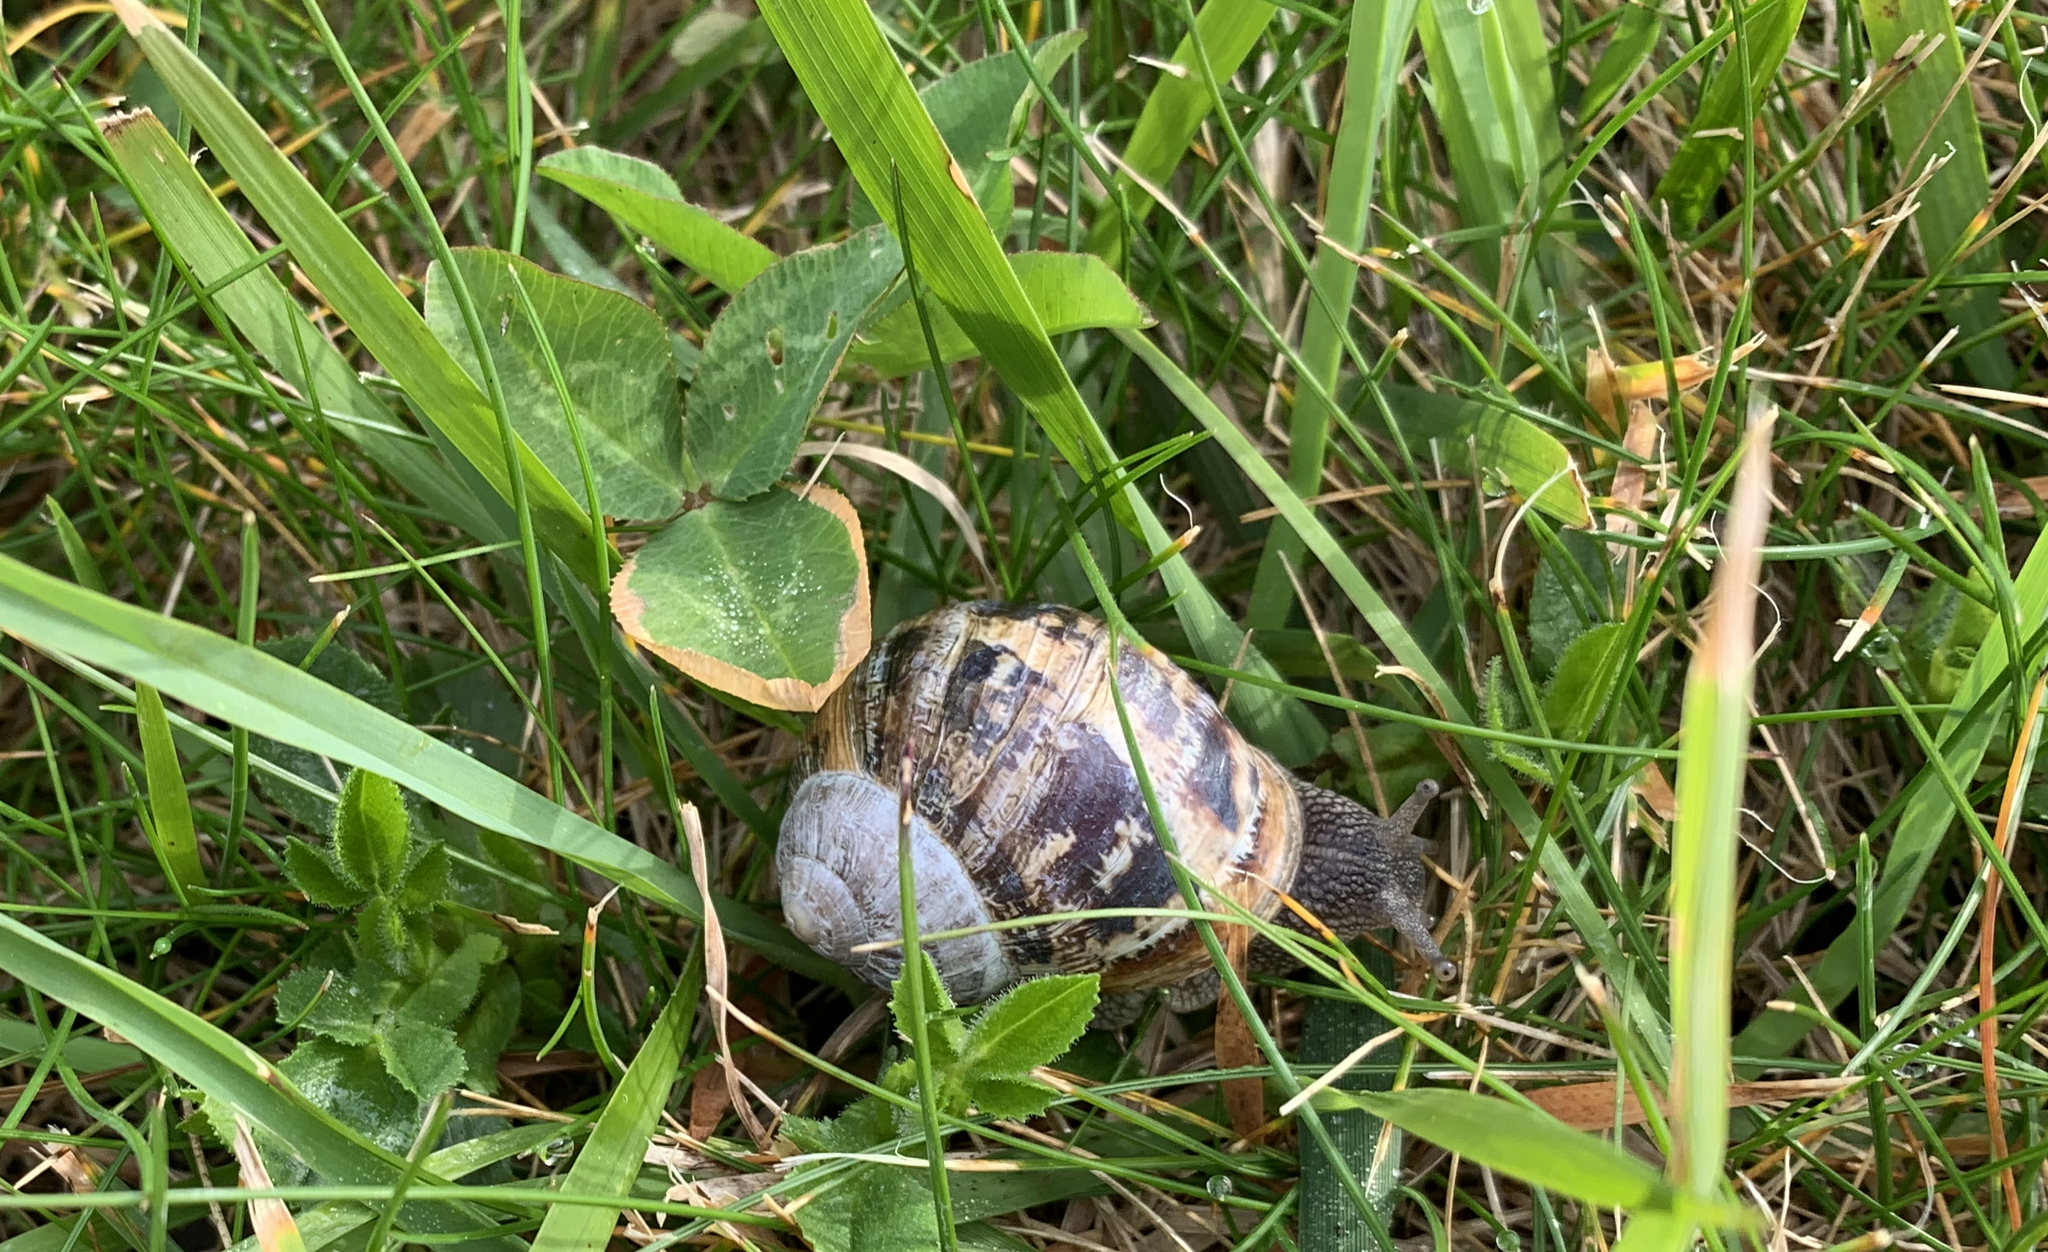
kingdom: Animalia
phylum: Mollusca
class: Gastropoda
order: Stylommatophora
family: Helicidae
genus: Cornu
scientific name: Cornu aspersum
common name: Brown garden snail
